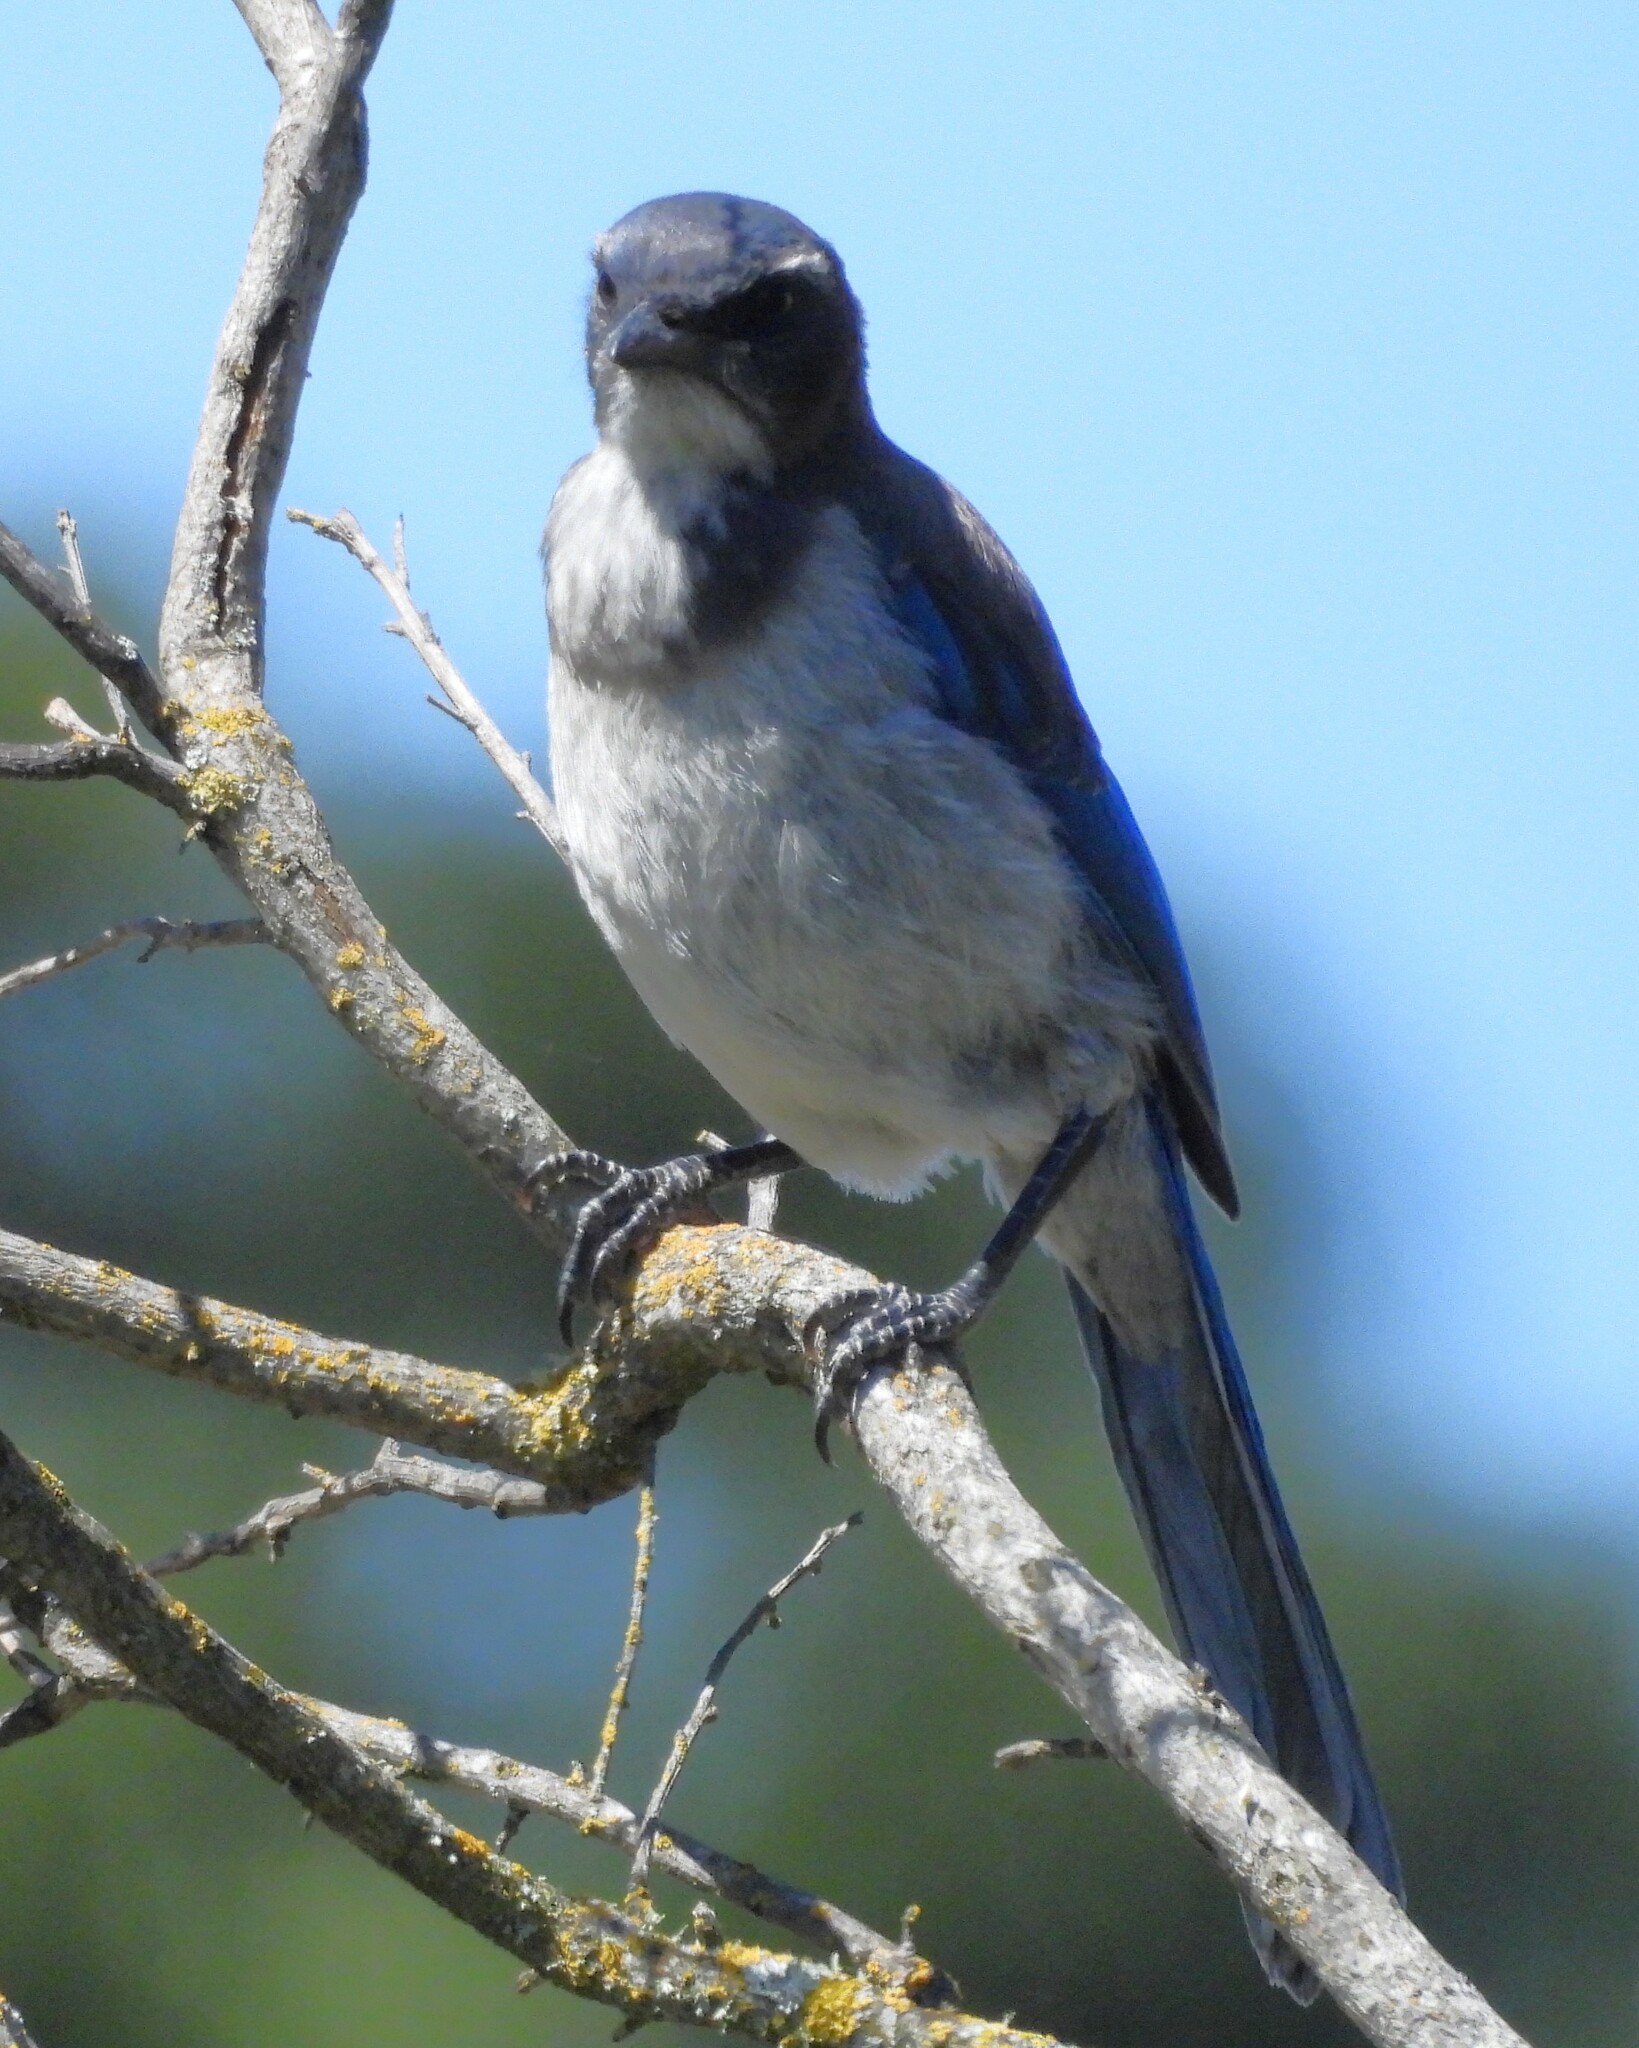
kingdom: Animalia
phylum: Chordata
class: Aves
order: Passeriformes
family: Corvidae
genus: Aphelocoma
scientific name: Aphelocoma californica
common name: California scrub-jay
